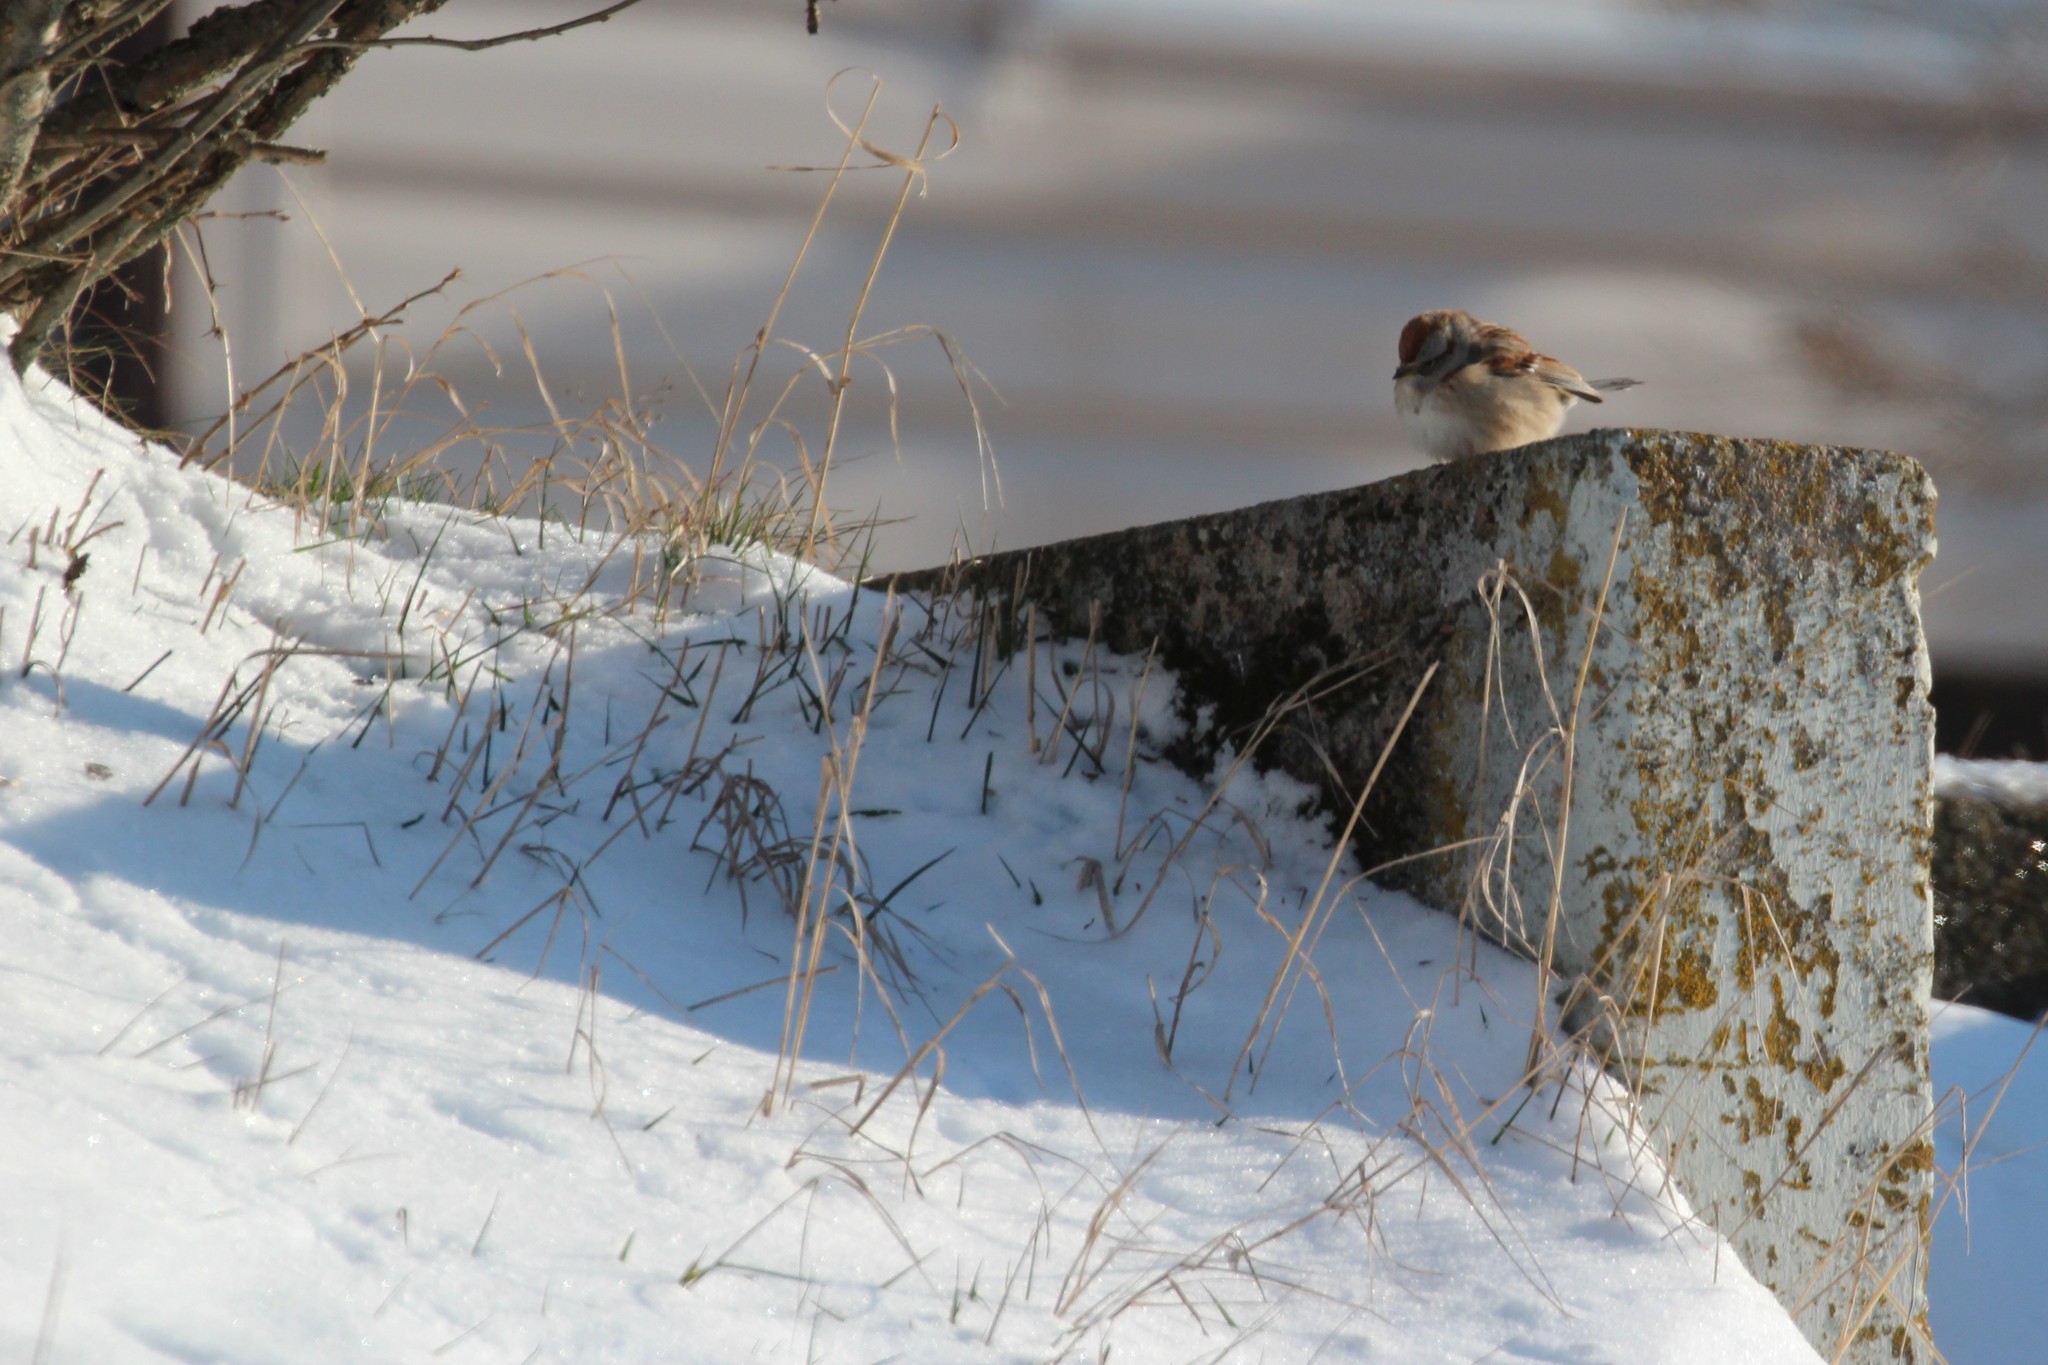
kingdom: Animalia
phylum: Chordata
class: Aves
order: Passeriformes
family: Passerellidae
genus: Spizelloides
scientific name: Spizelloides arborea
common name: American tree sparrow
